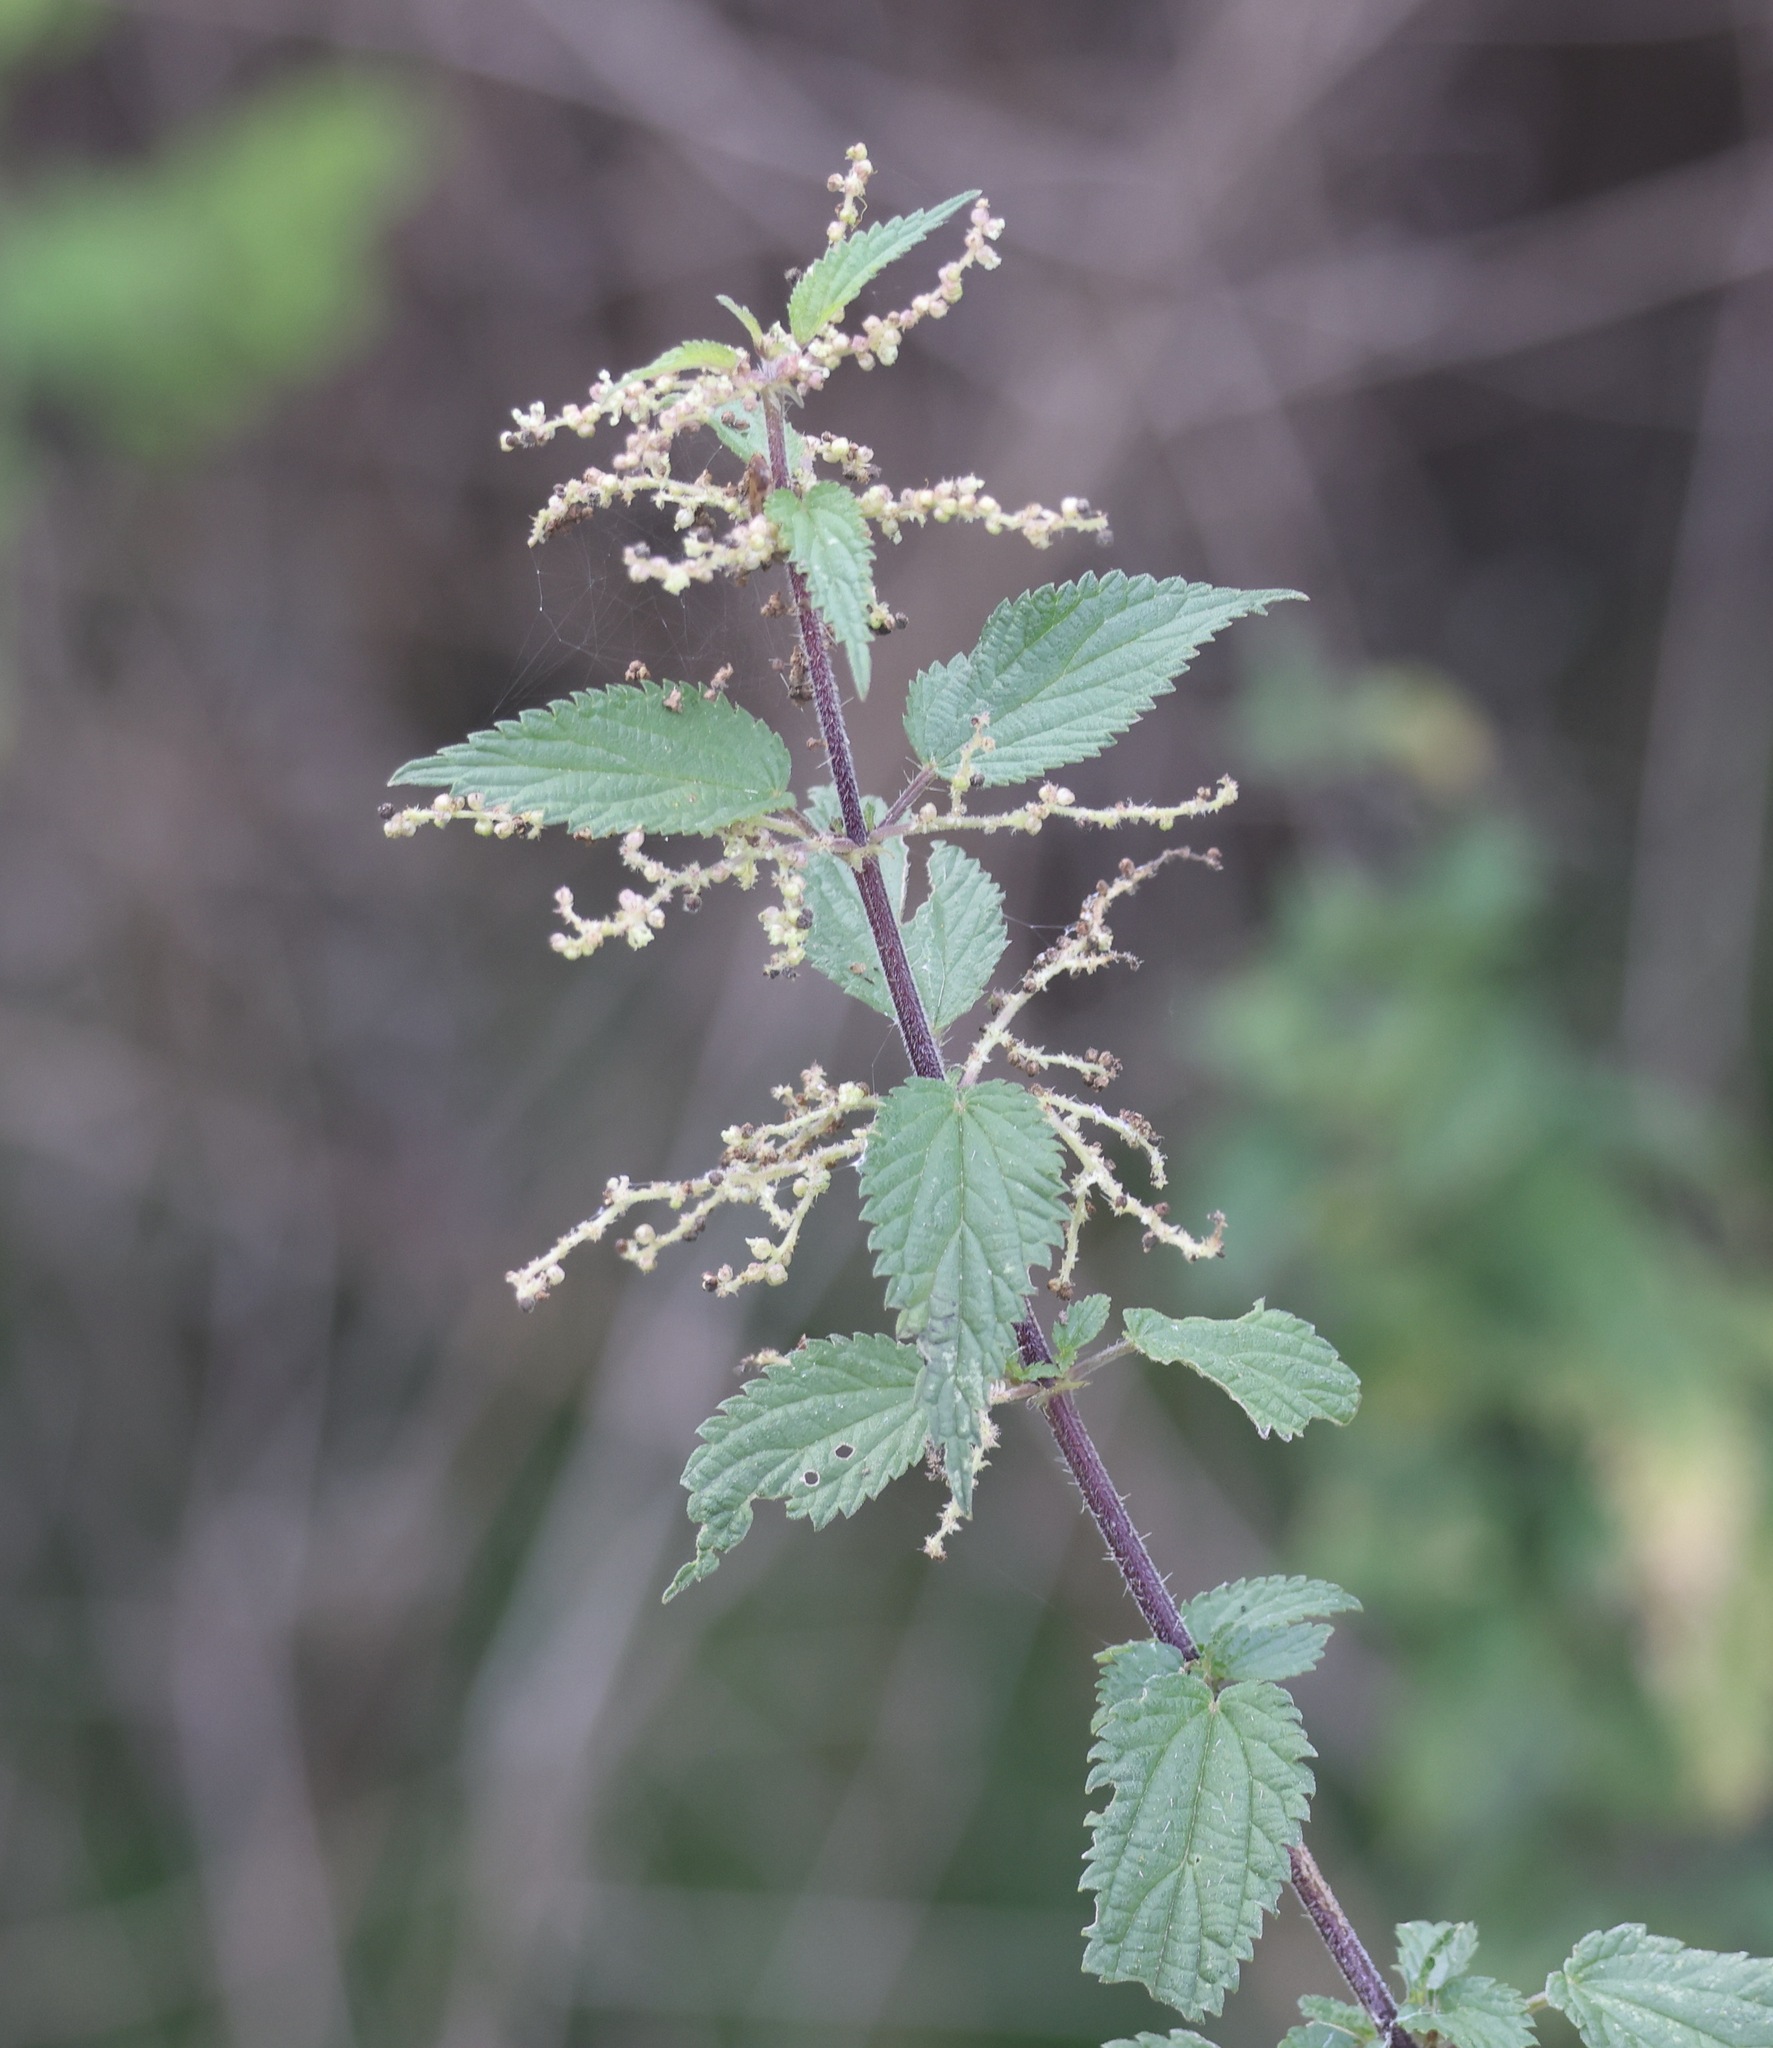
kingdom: Plantae
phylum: Tracheophyta
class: Magnoliopsida
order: Rosales
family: Urticaceae
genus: Urtica
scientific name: Urtica dioica
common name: Common nettle
